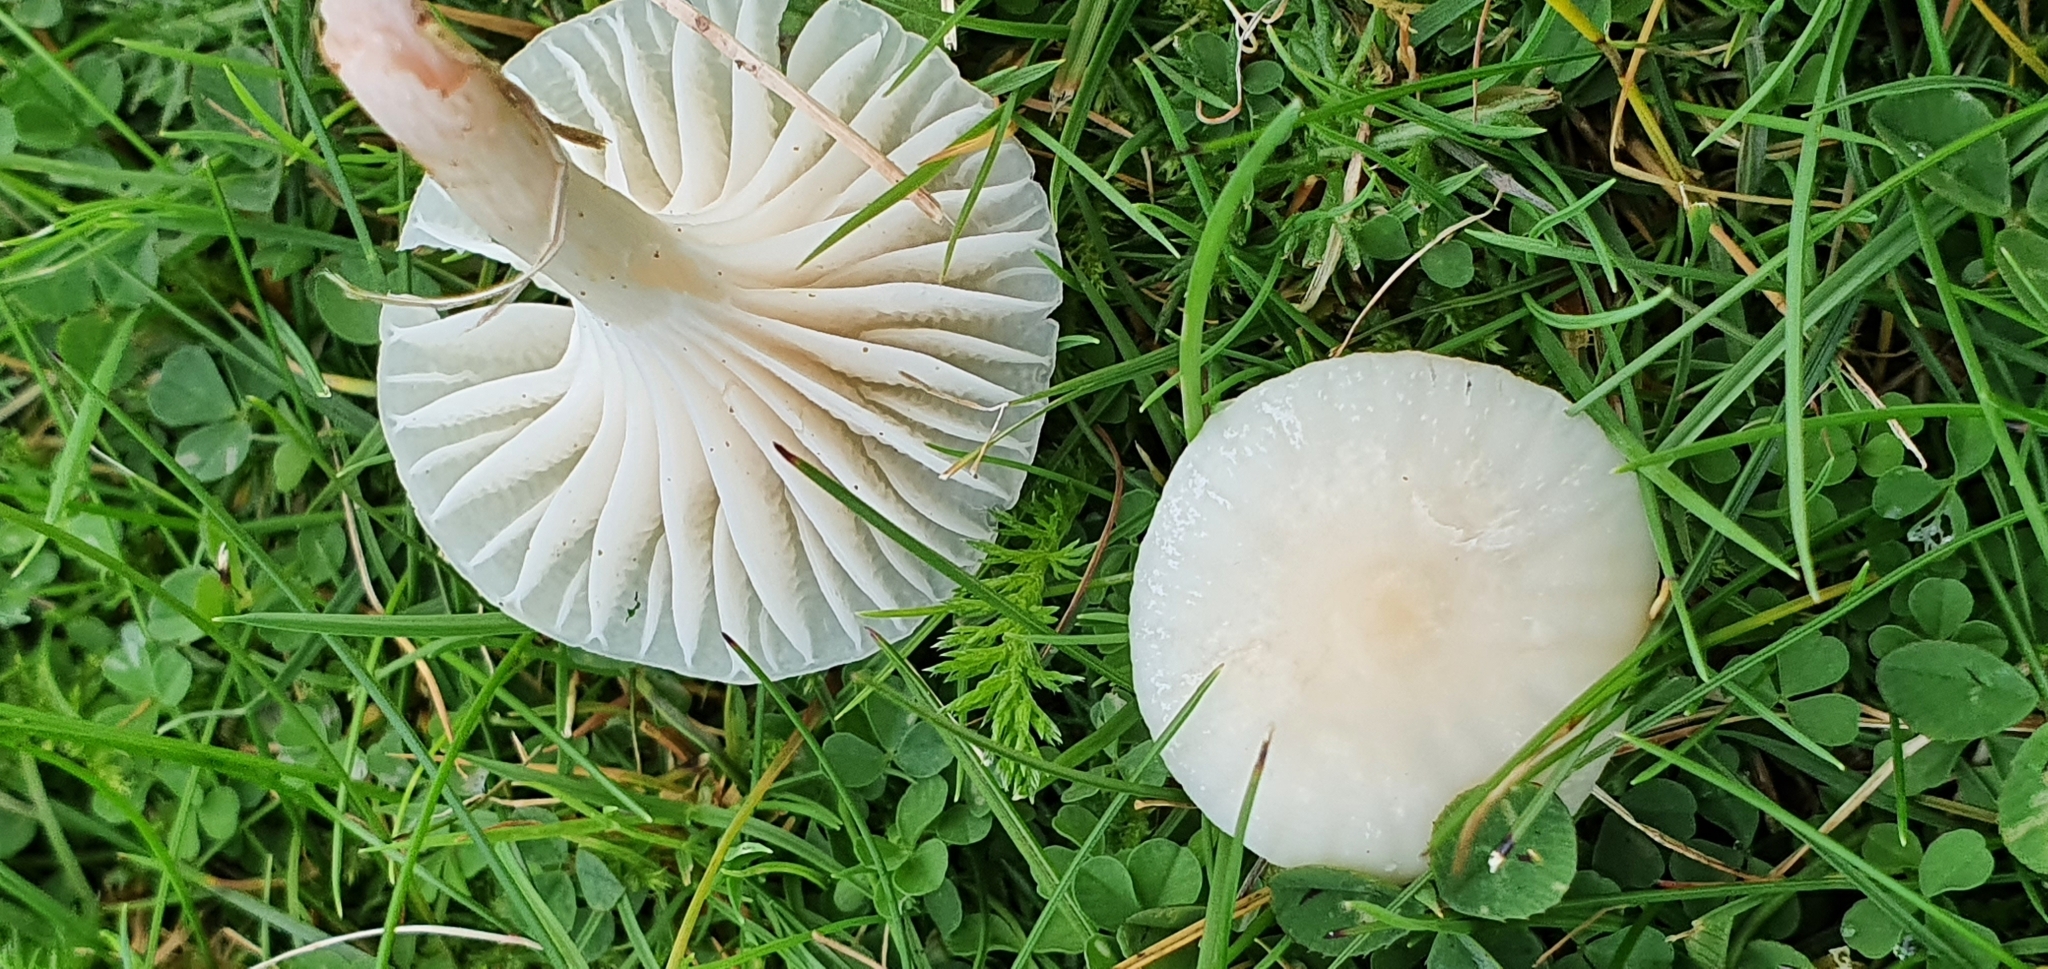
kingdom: Fungi
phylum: Basidiomycota
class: Agaricomycetes
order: Agaricales
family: Hygrophoraceae
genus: Cuphophyllus
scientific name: Cuphophyllus virgineus
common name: Snowy waxcap
